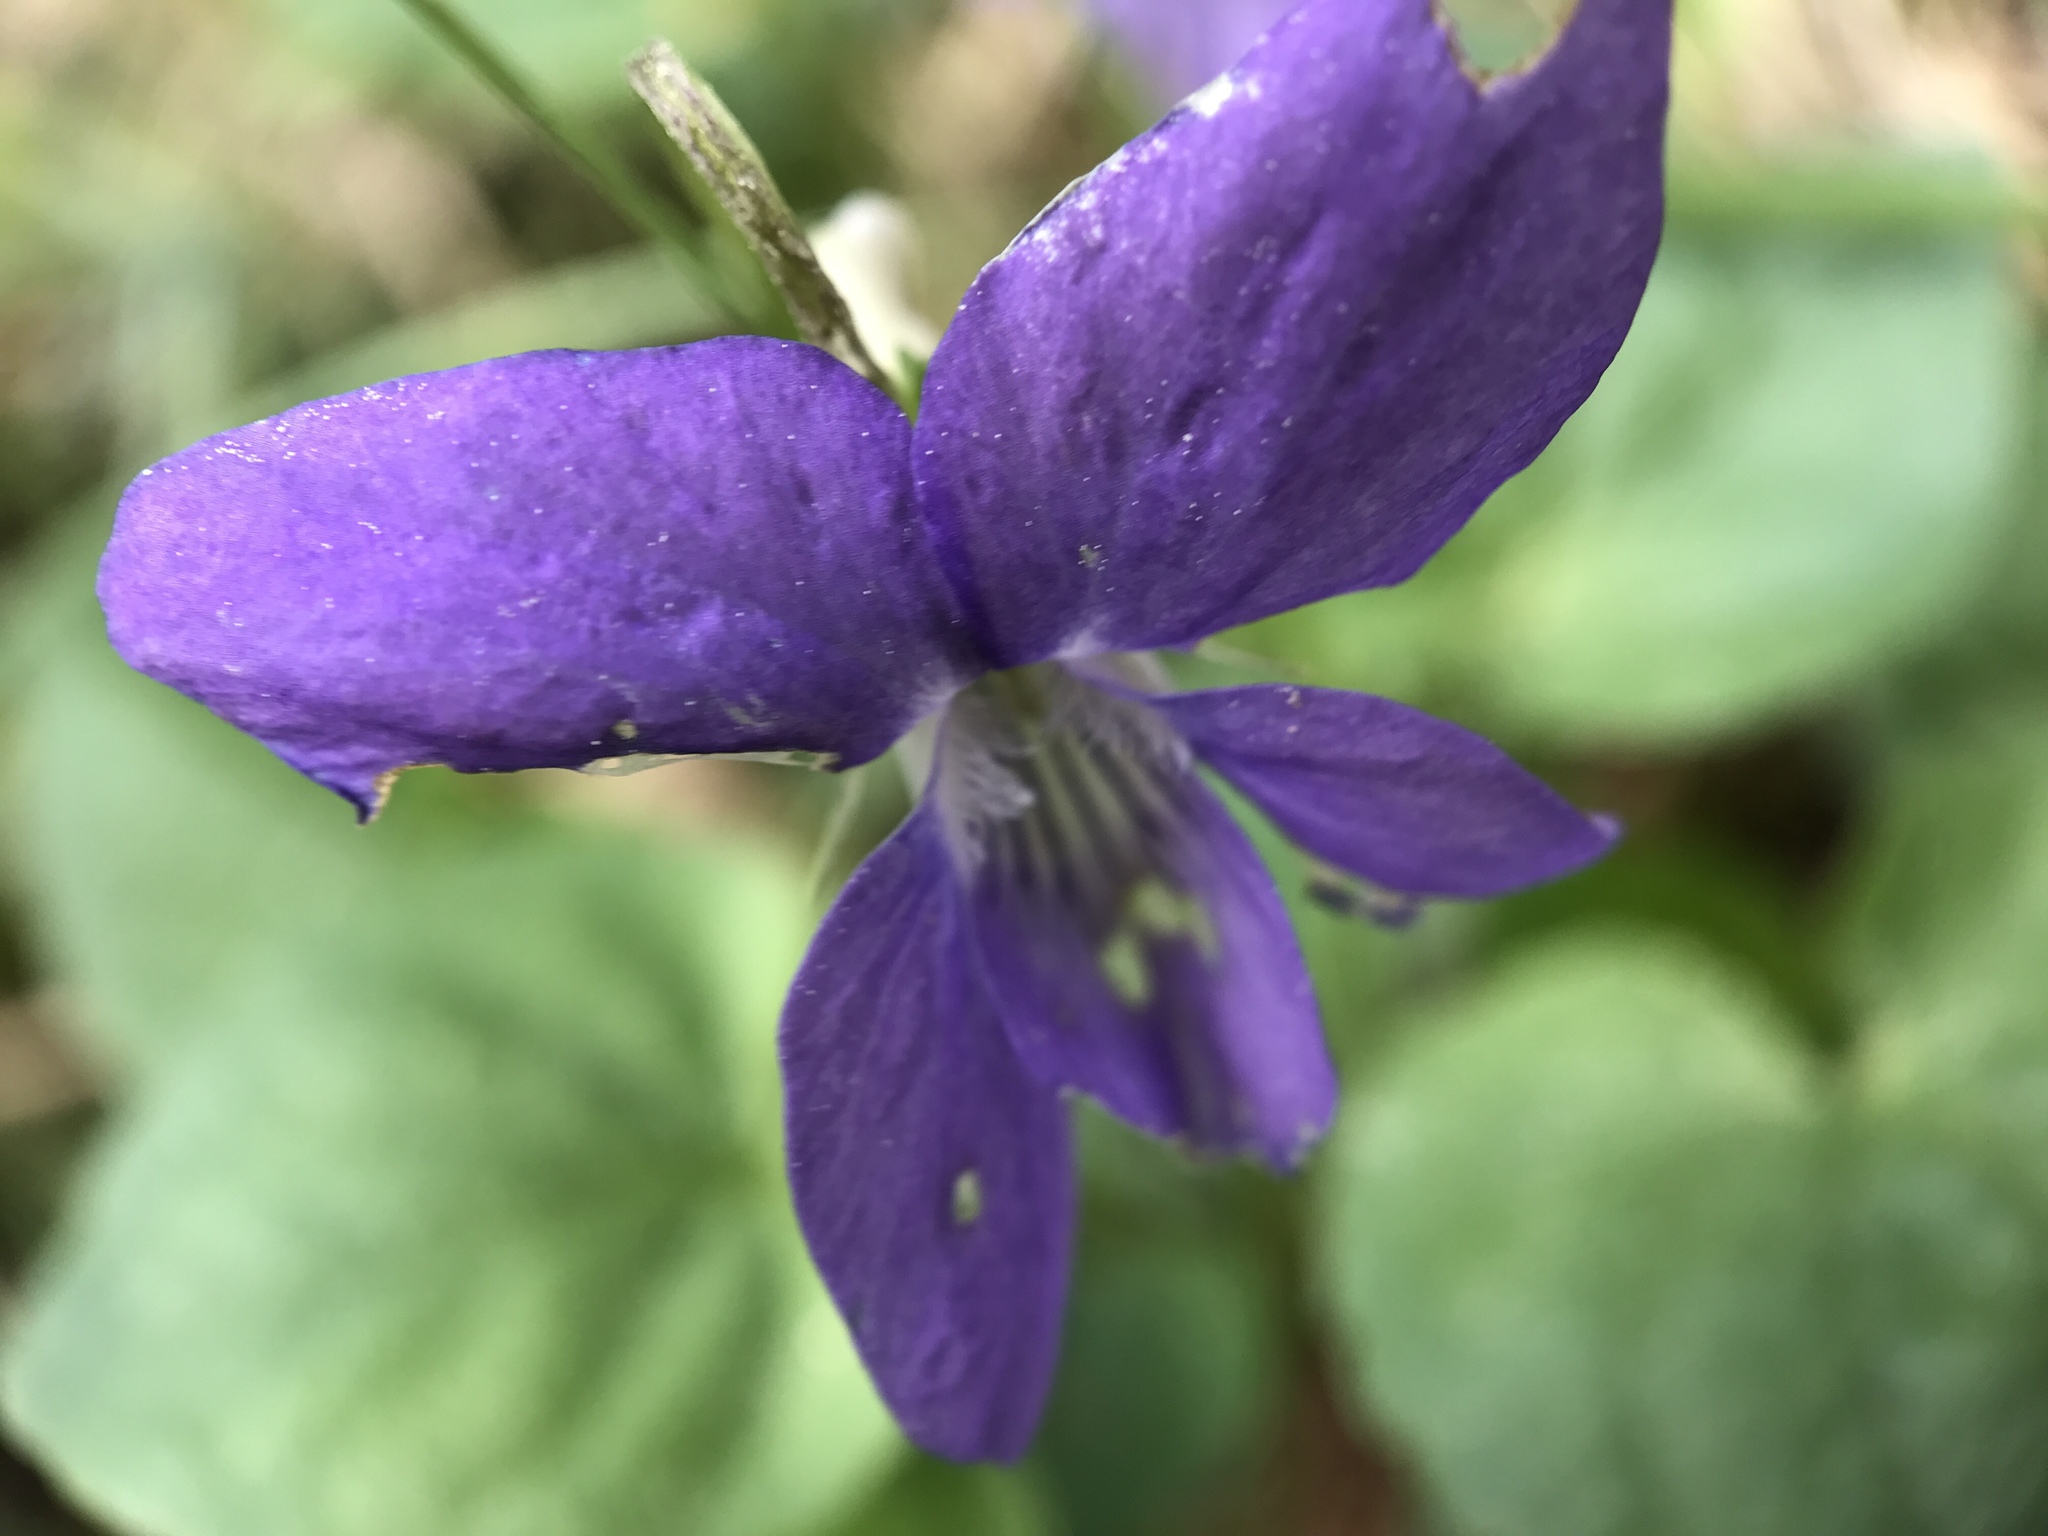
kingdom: Plantae
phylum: Tracheophyta
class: Magnoliopsida
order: Malpighiales
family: Violaceae
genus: Viola
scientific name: Viola riviniana
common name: Common dog-violet
